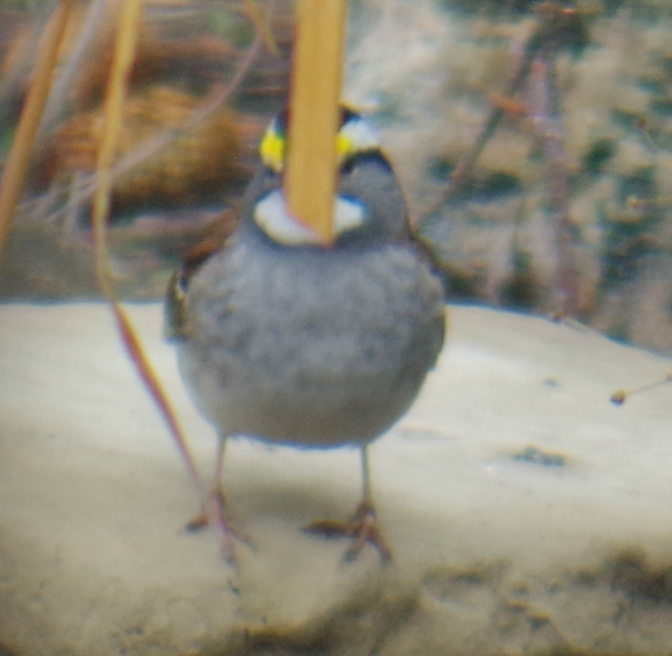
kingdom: Animalia
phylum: Chordata
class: Aves
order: Passeriformes
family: Passerellidae
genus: Zonotrichia
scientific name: Zonotrichia albicollis
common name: White-throated sparrow
